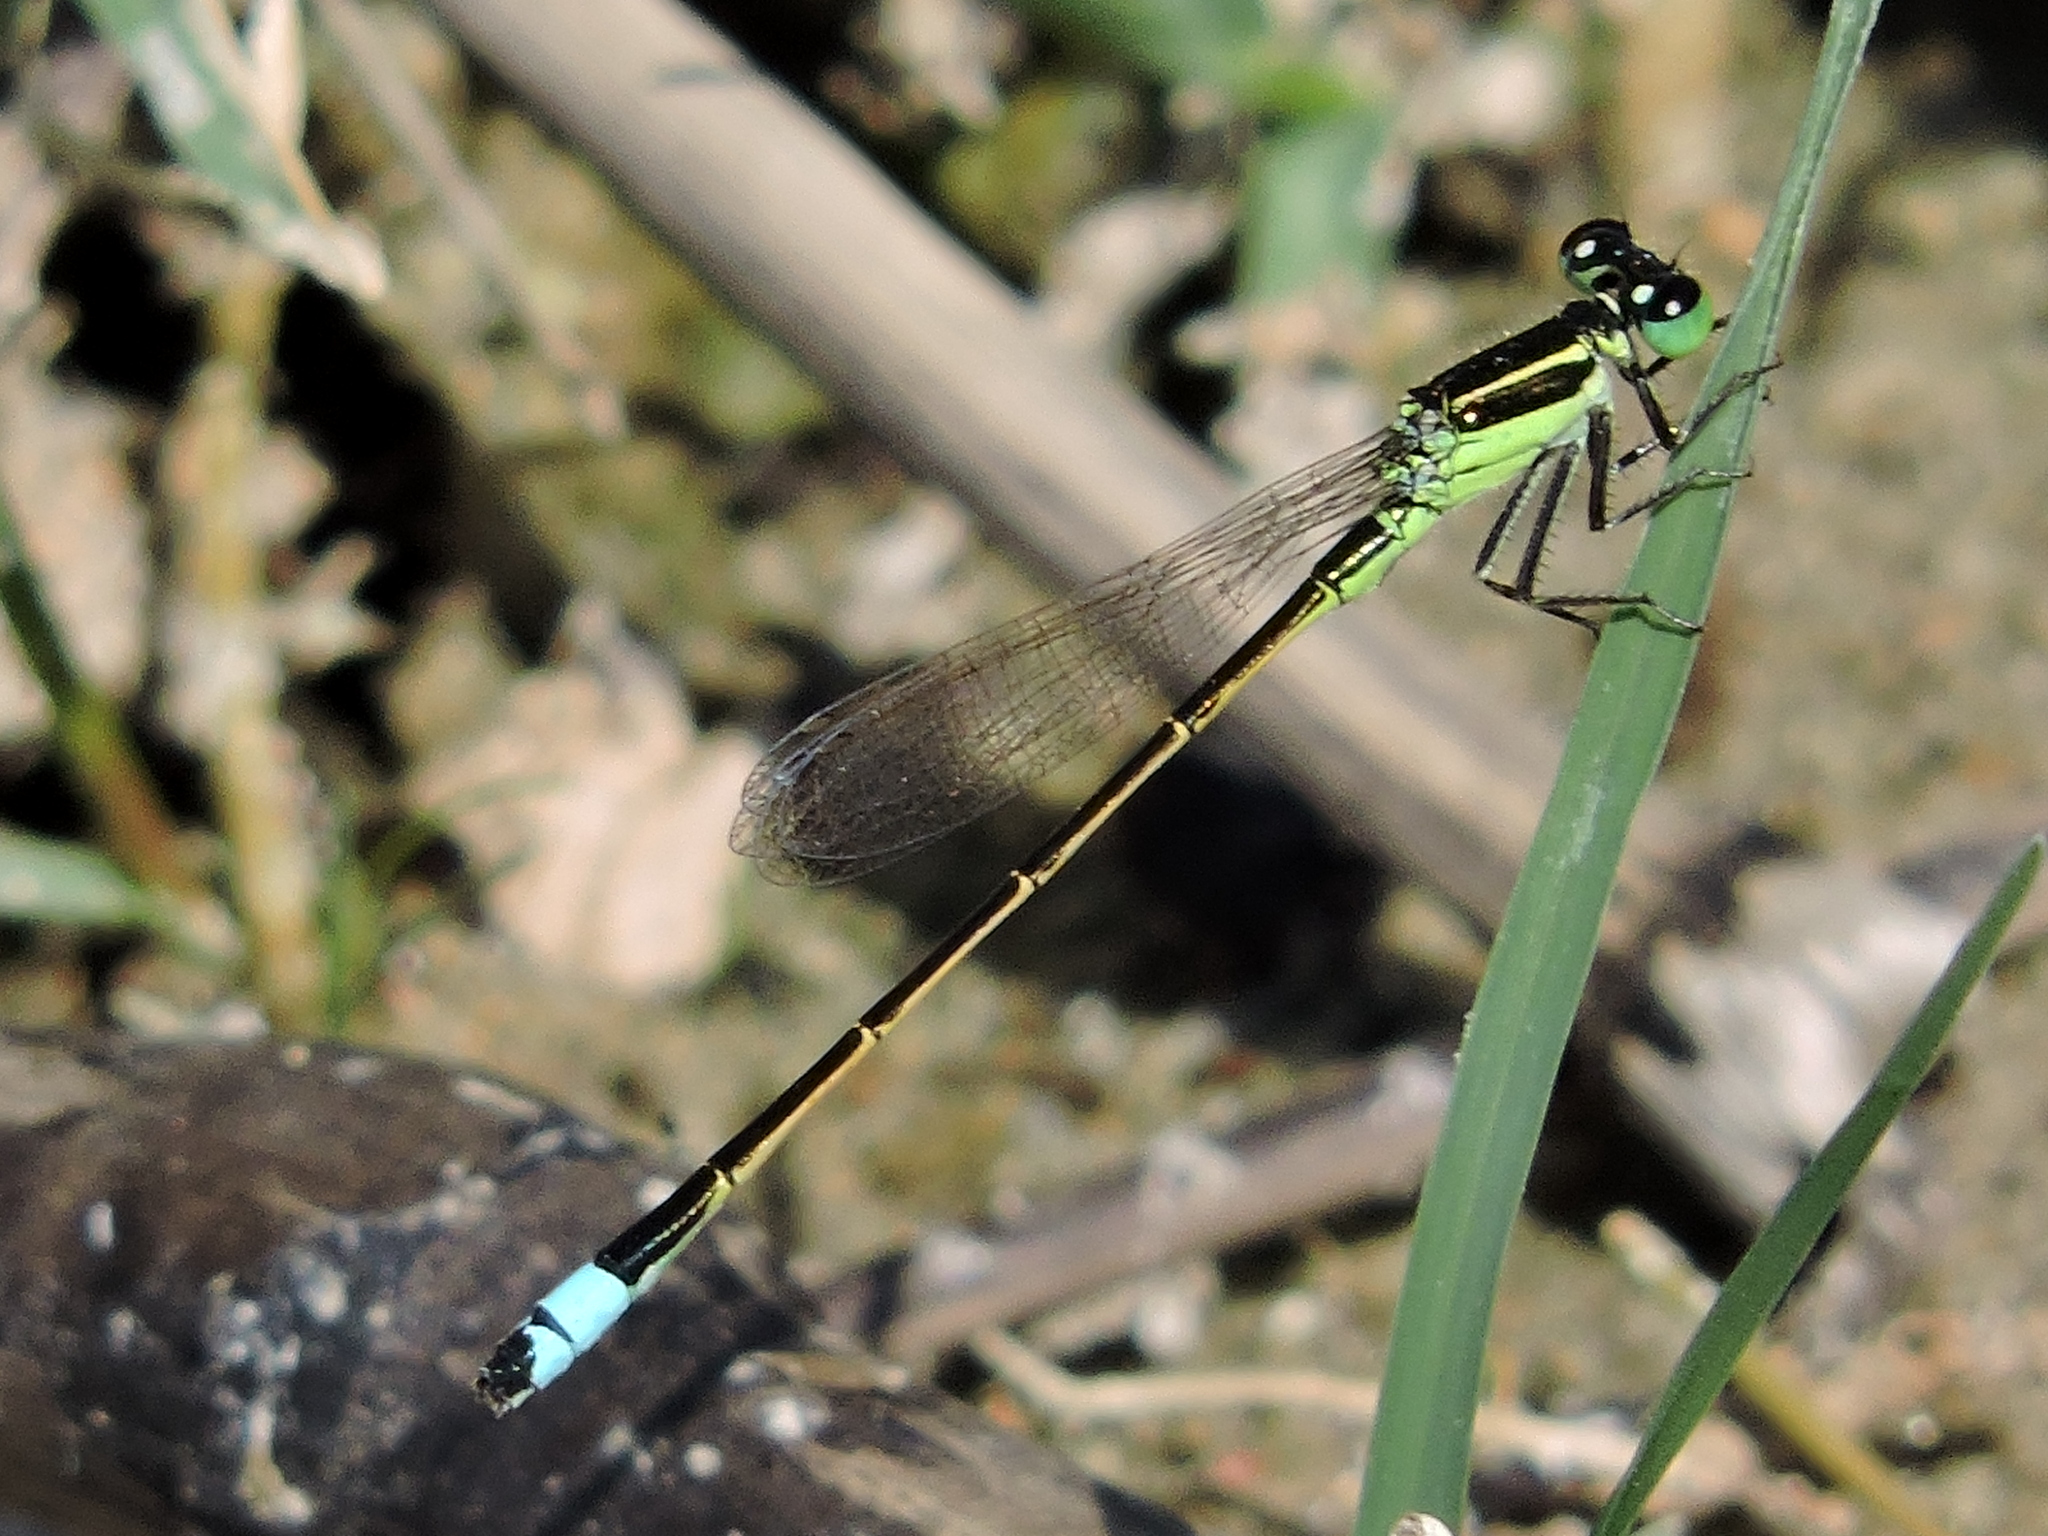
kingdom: Animalia
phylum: Arthropoda
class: Insecta
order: Odonata
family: Coenagrionidae
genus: Ischnura
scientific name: Ischnura ramburii
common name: Rambur's forktail
